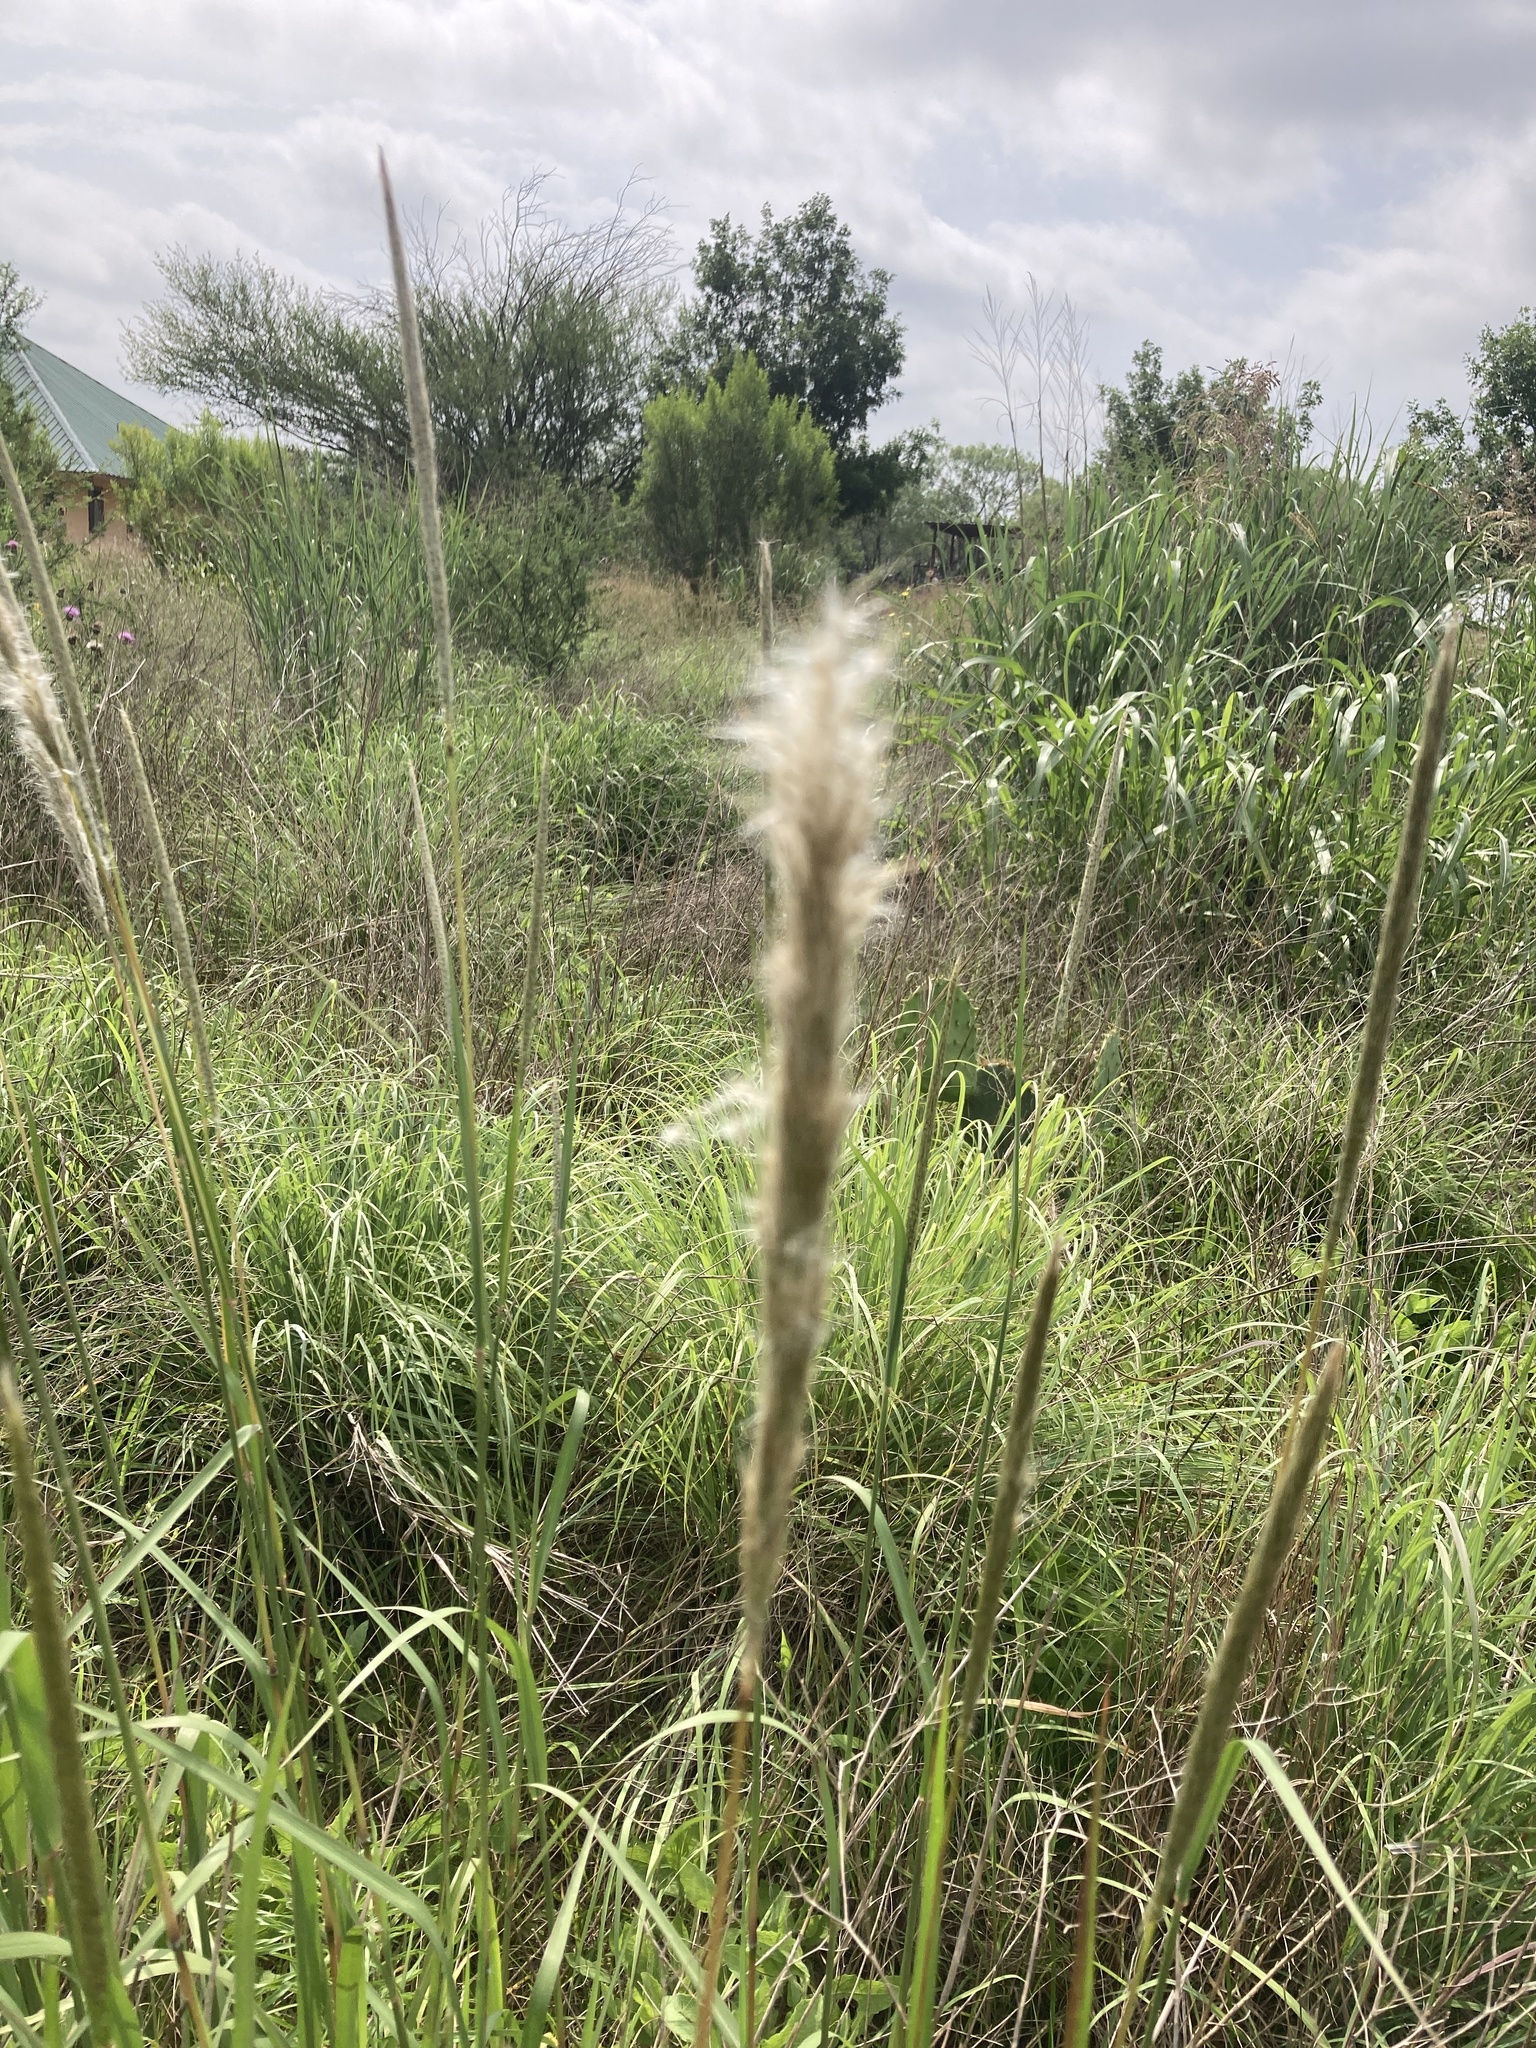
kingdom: Plantae
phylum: Tracheophyta
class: Liliopsida
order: Poales
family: Poaceae
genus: Bothriochloa
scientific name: Bothriochloa longipaniculata
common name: Longspike silver bluestem
